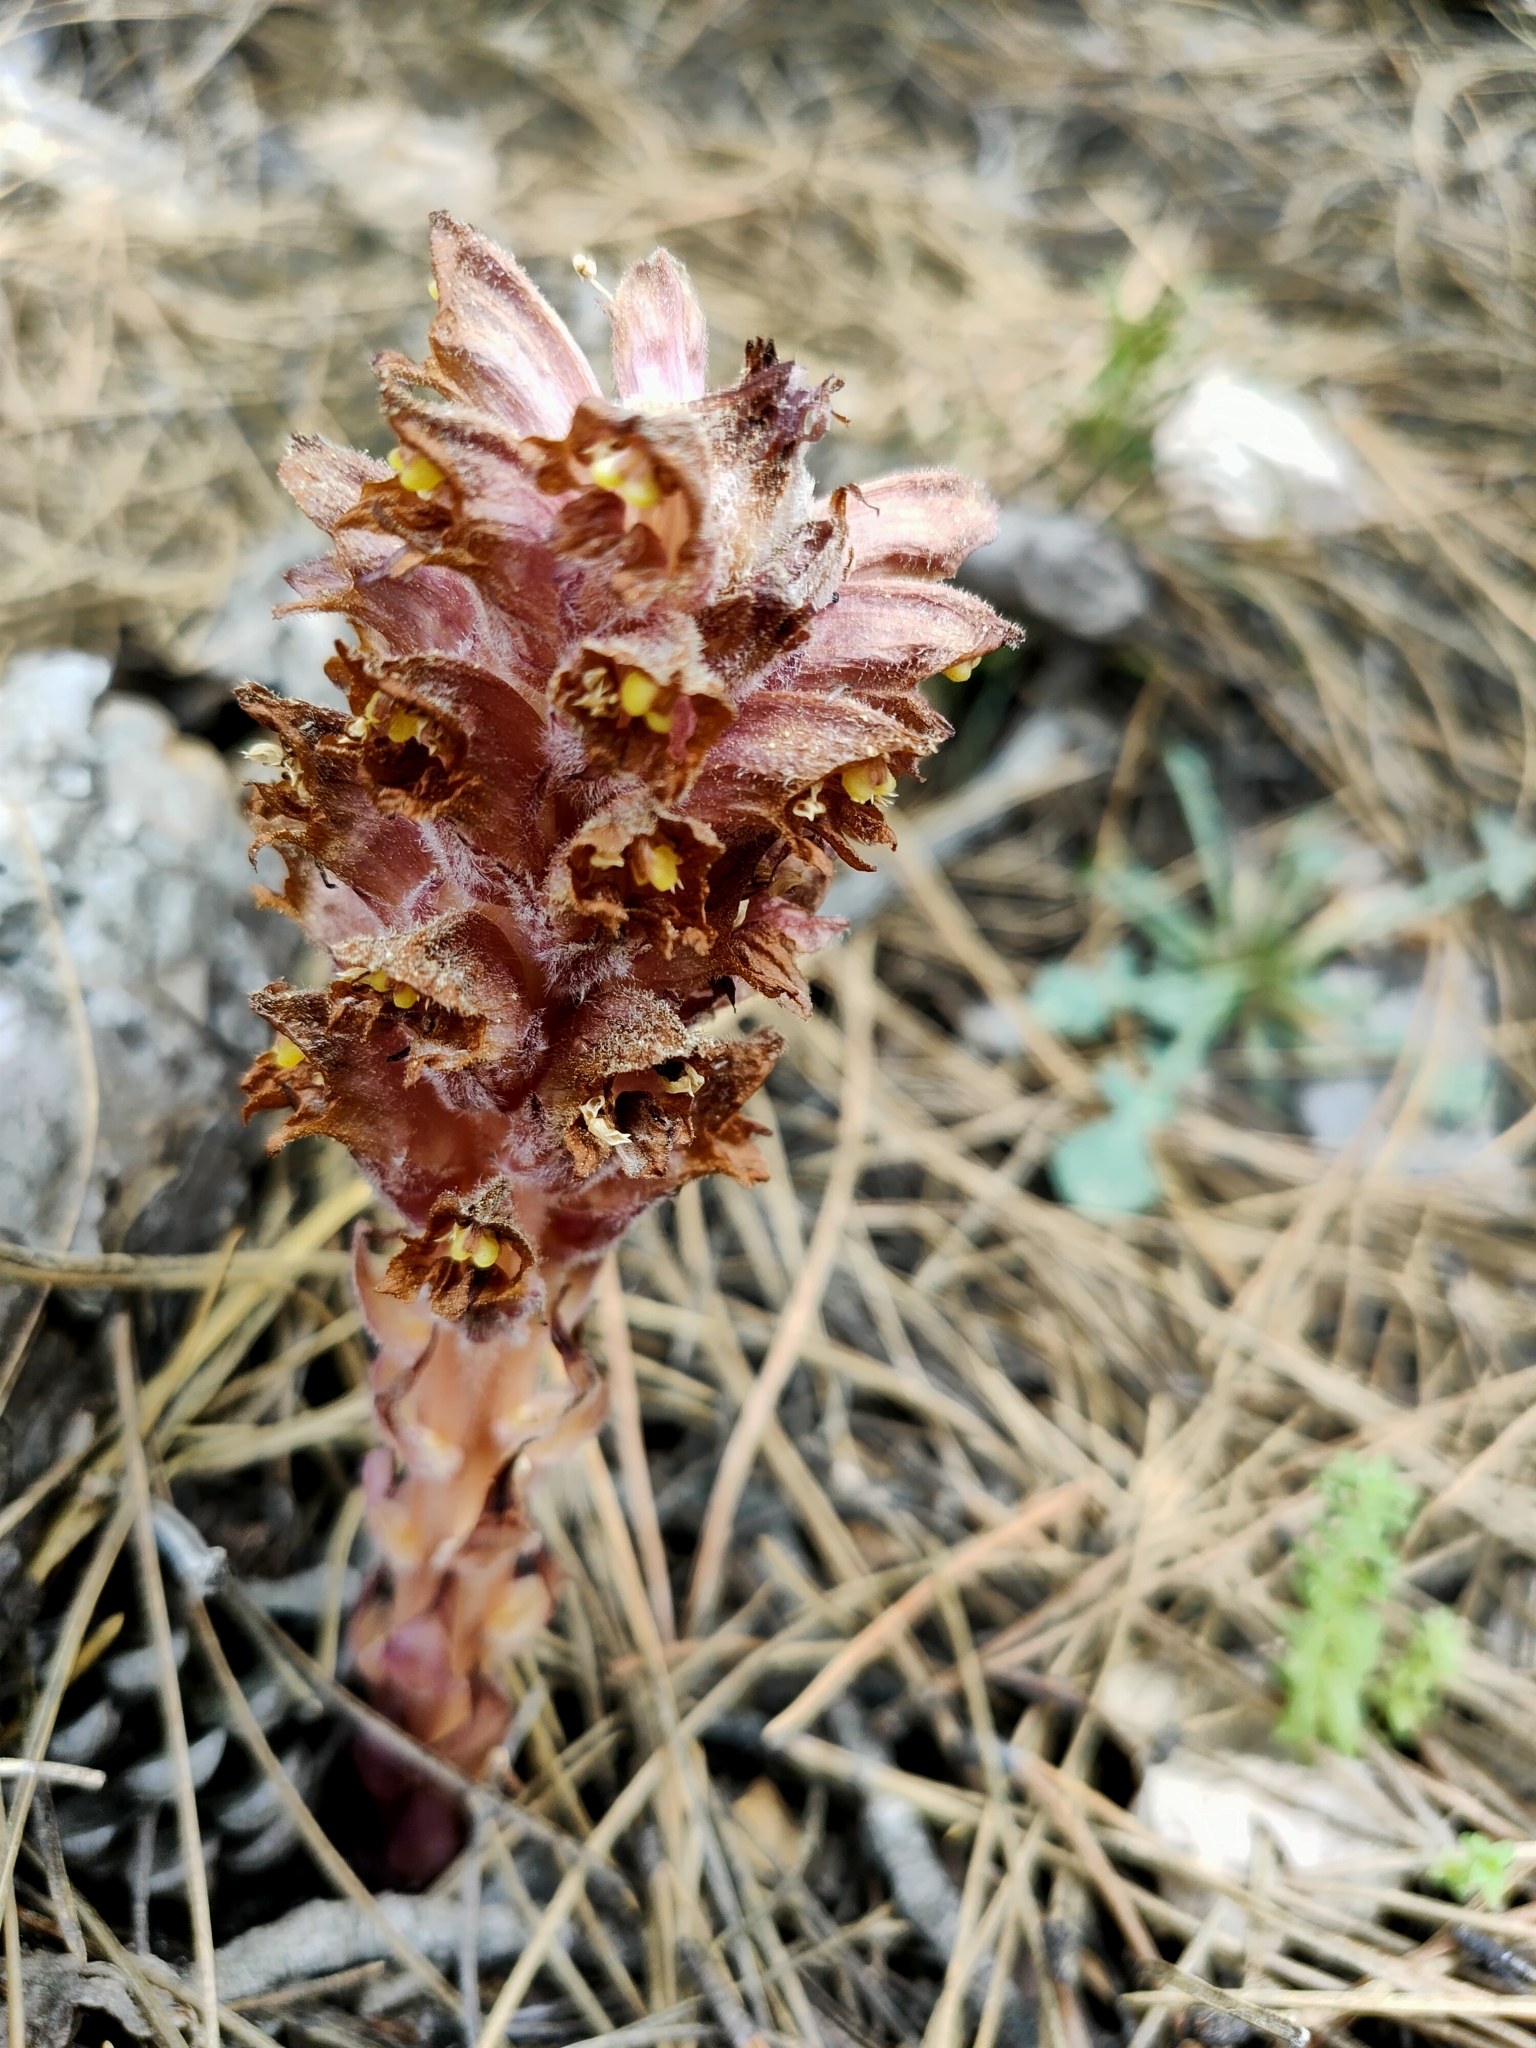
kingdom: Plantae
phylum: Tracheophyta
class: Magnoliopsida
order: Lamiales
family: Orobanchaceae
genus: Orobanche
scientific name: Orobanche rapum-genistae
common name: Greater broomrape
